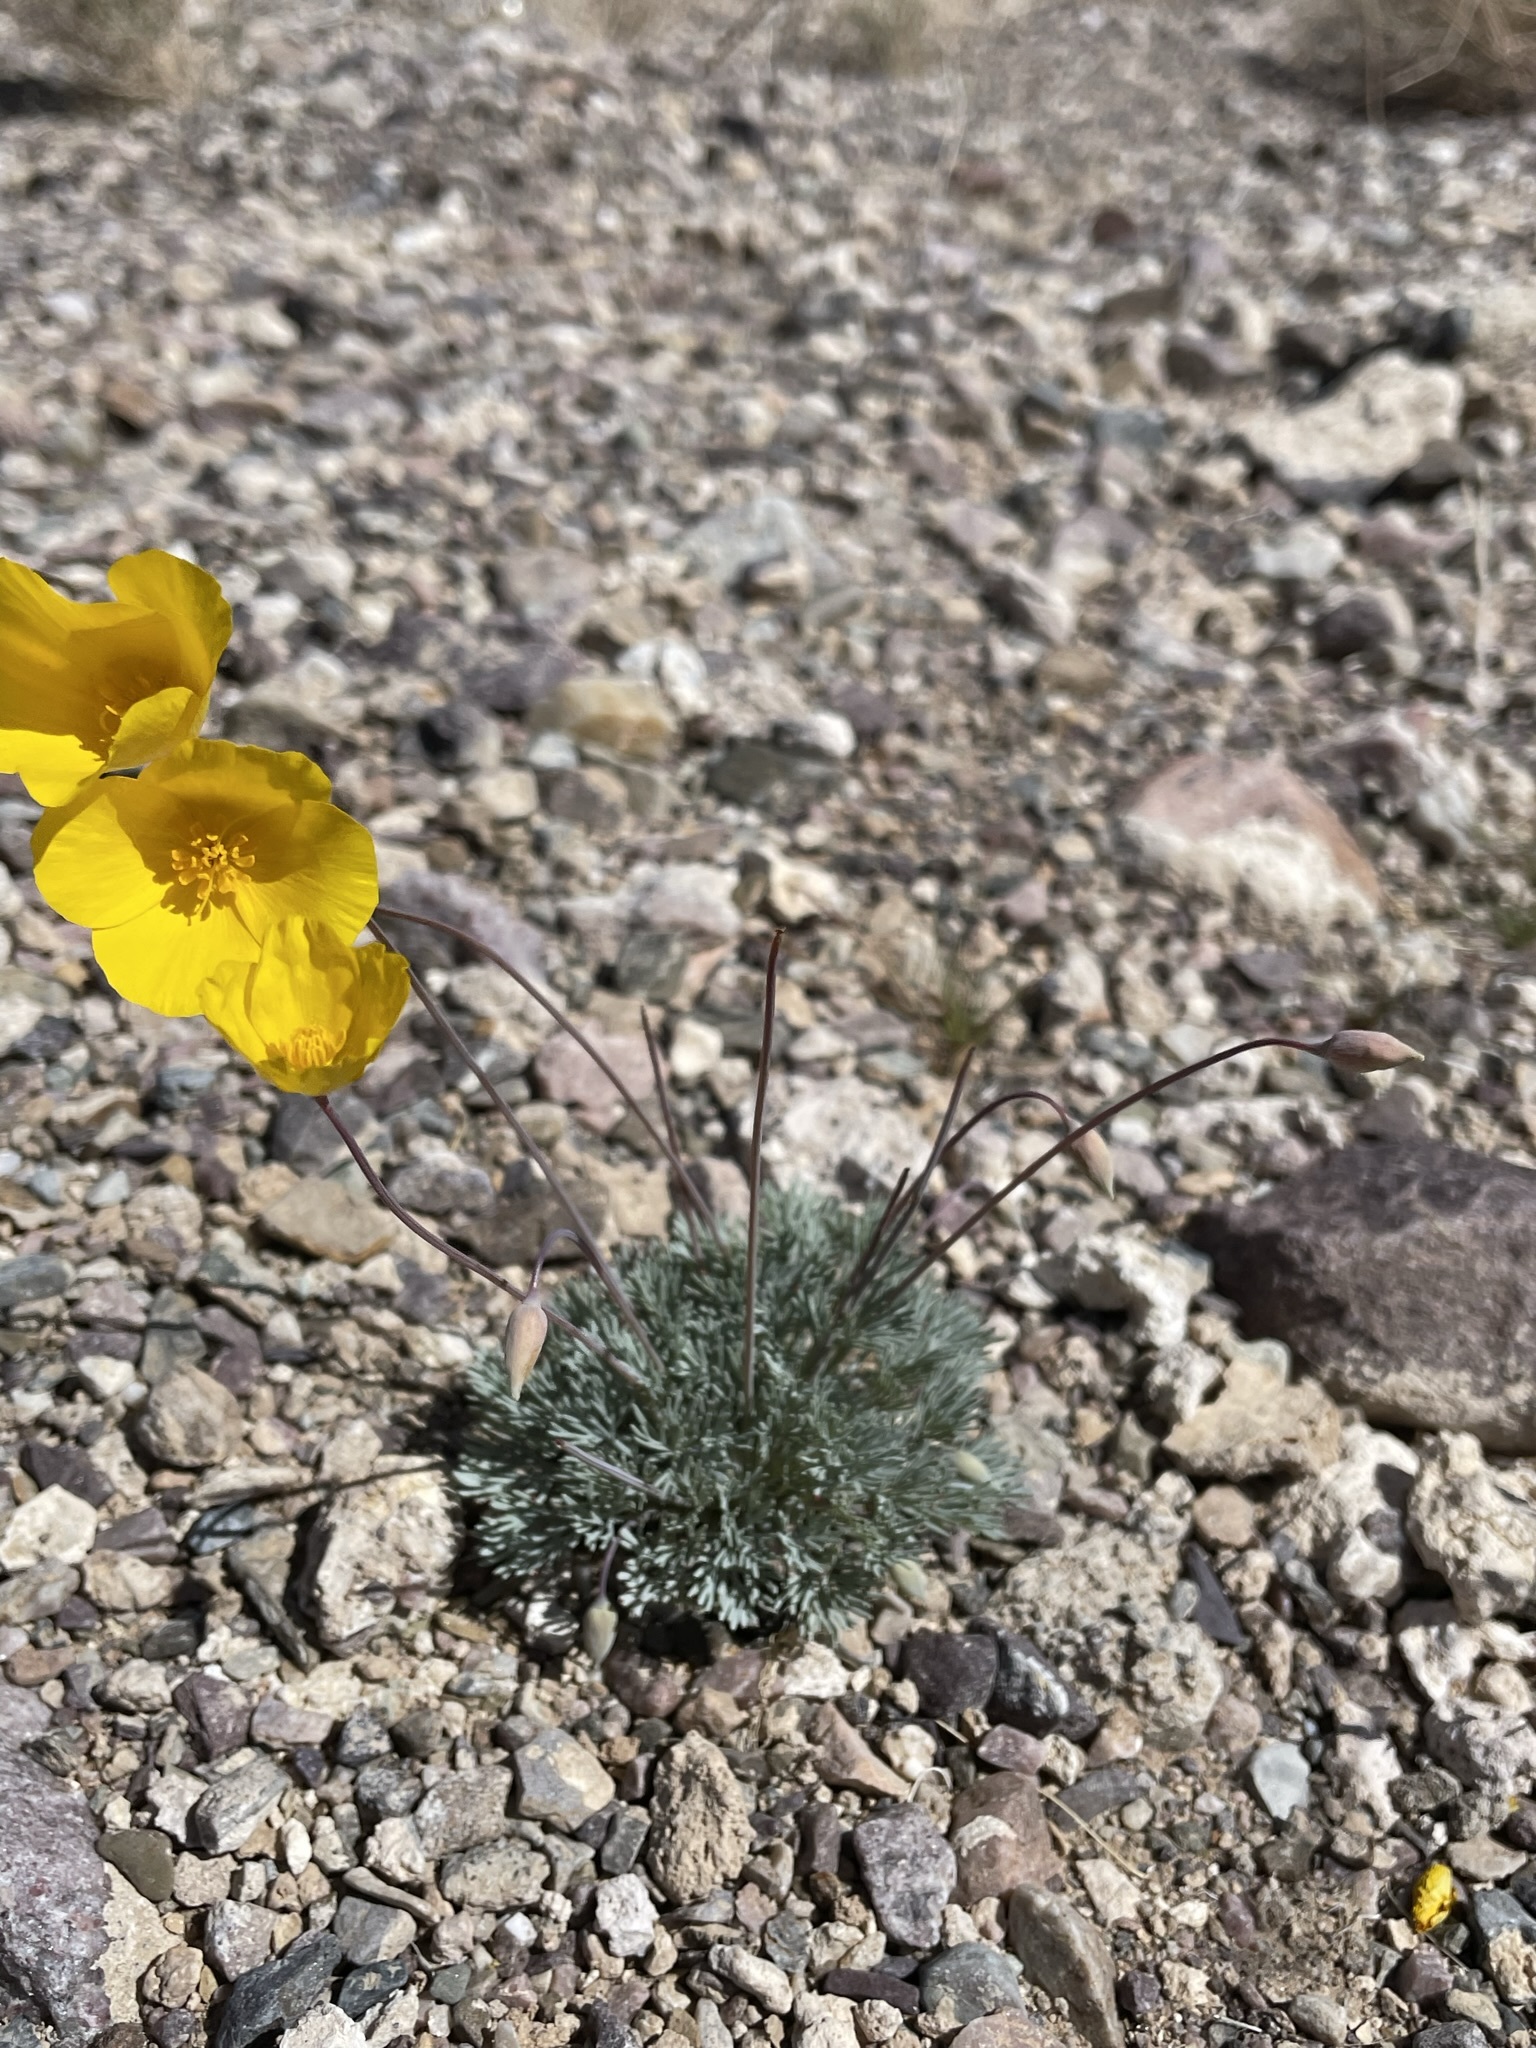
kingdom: Plantae
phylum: Tracheophyta
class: Magnoliopsida
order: Ranunculales
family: Papaveraceae
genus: Eschscholzia
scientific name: Eschscholzia glyptosperma
